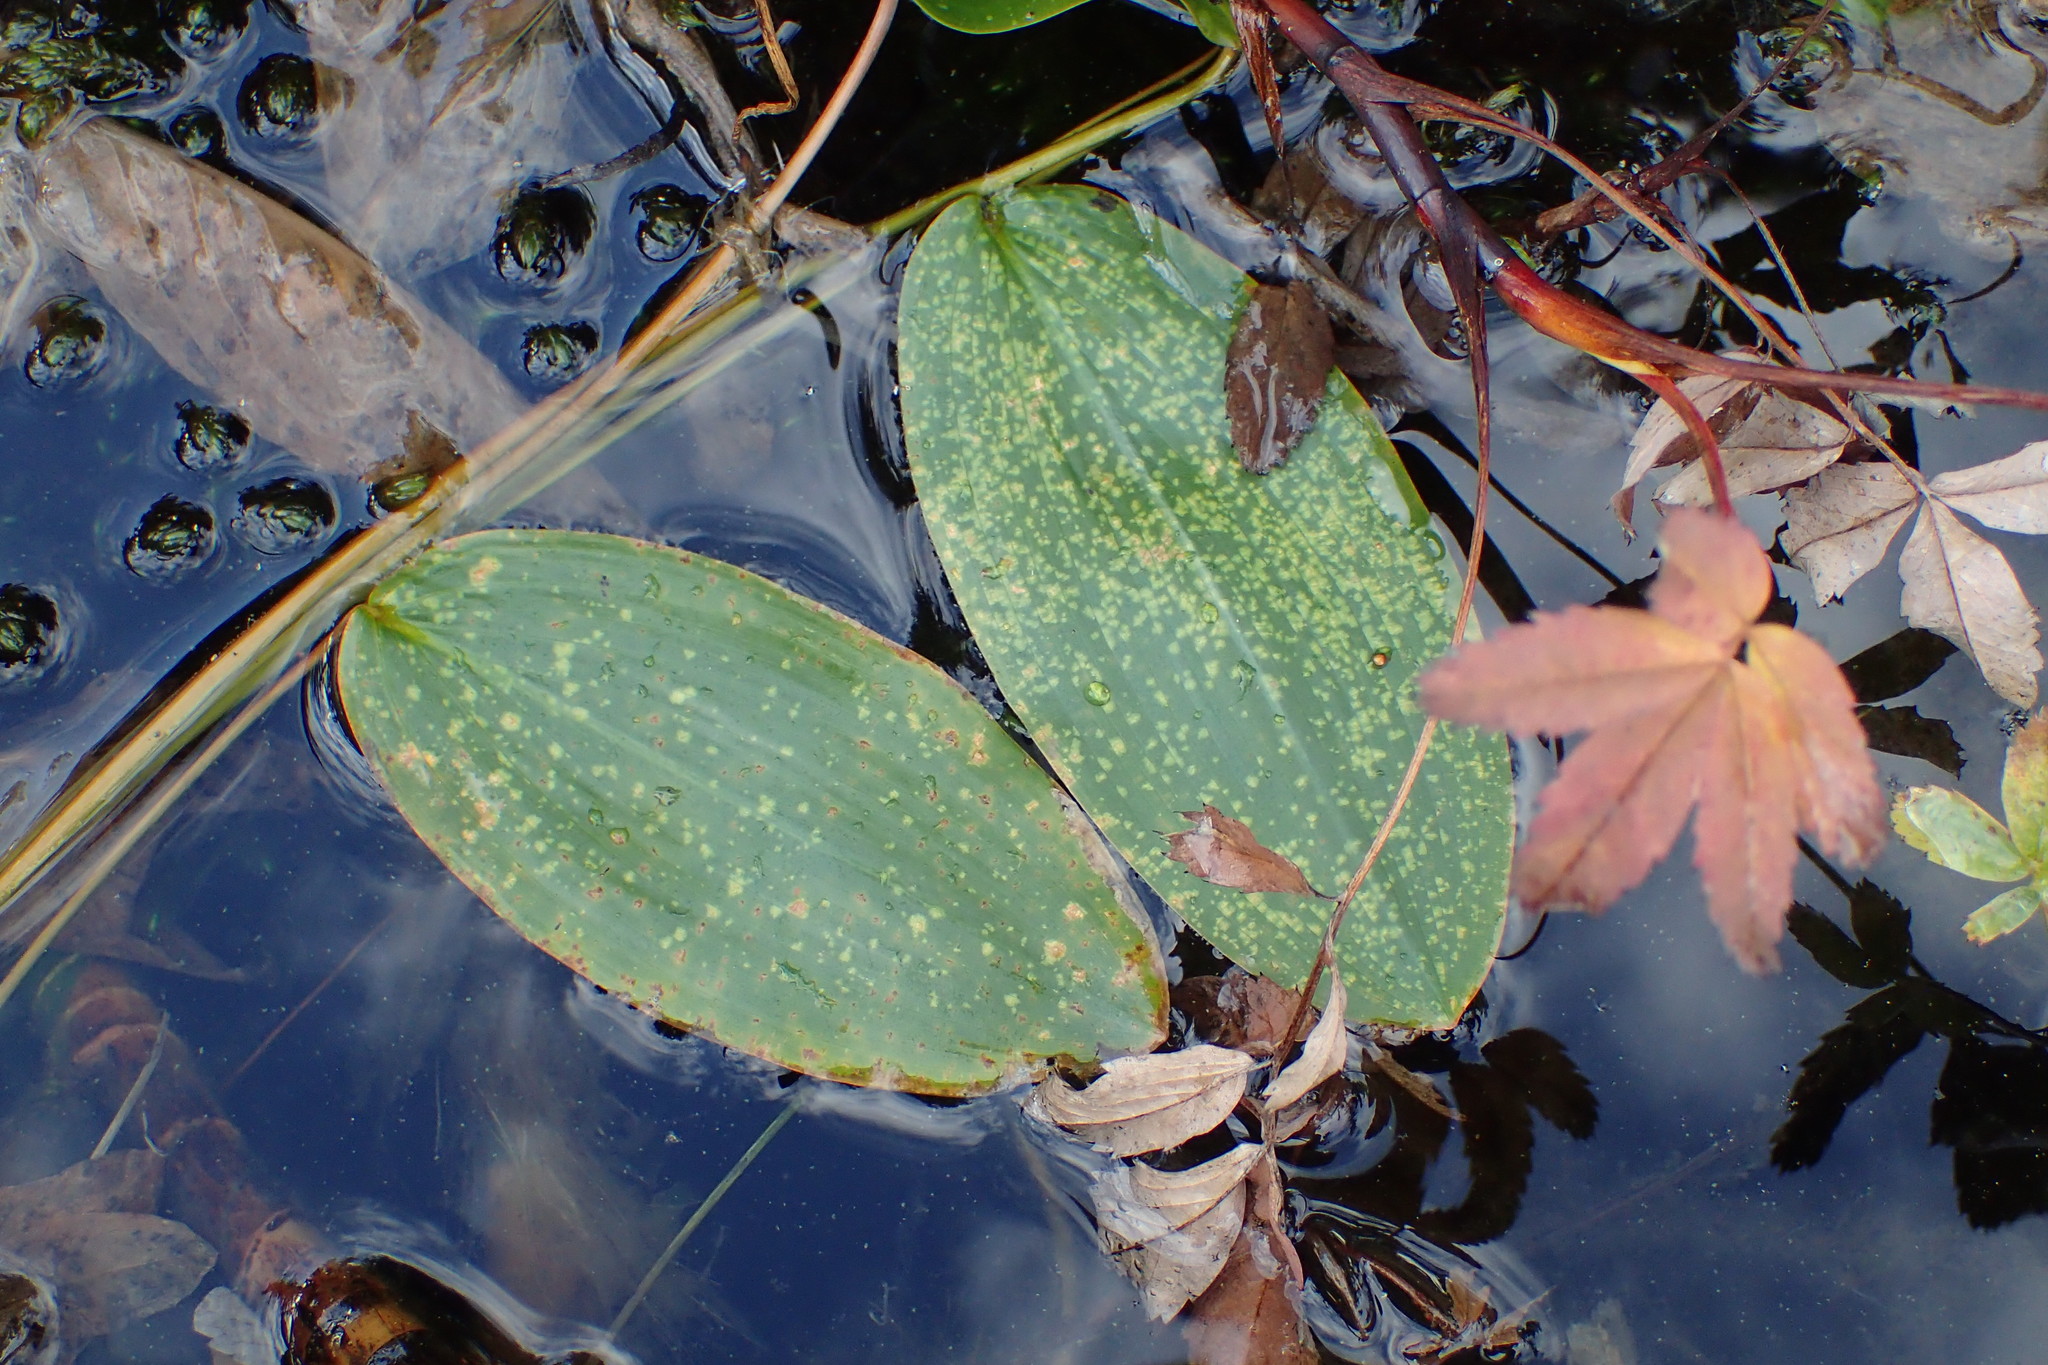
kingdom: Plantae
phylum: Tracheophyta
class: Liliopsida
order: Alismatales
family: Potamogetonaceae
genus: Potamogeton
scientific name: Potamogeton natans
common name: Broad-leaved pondweed
